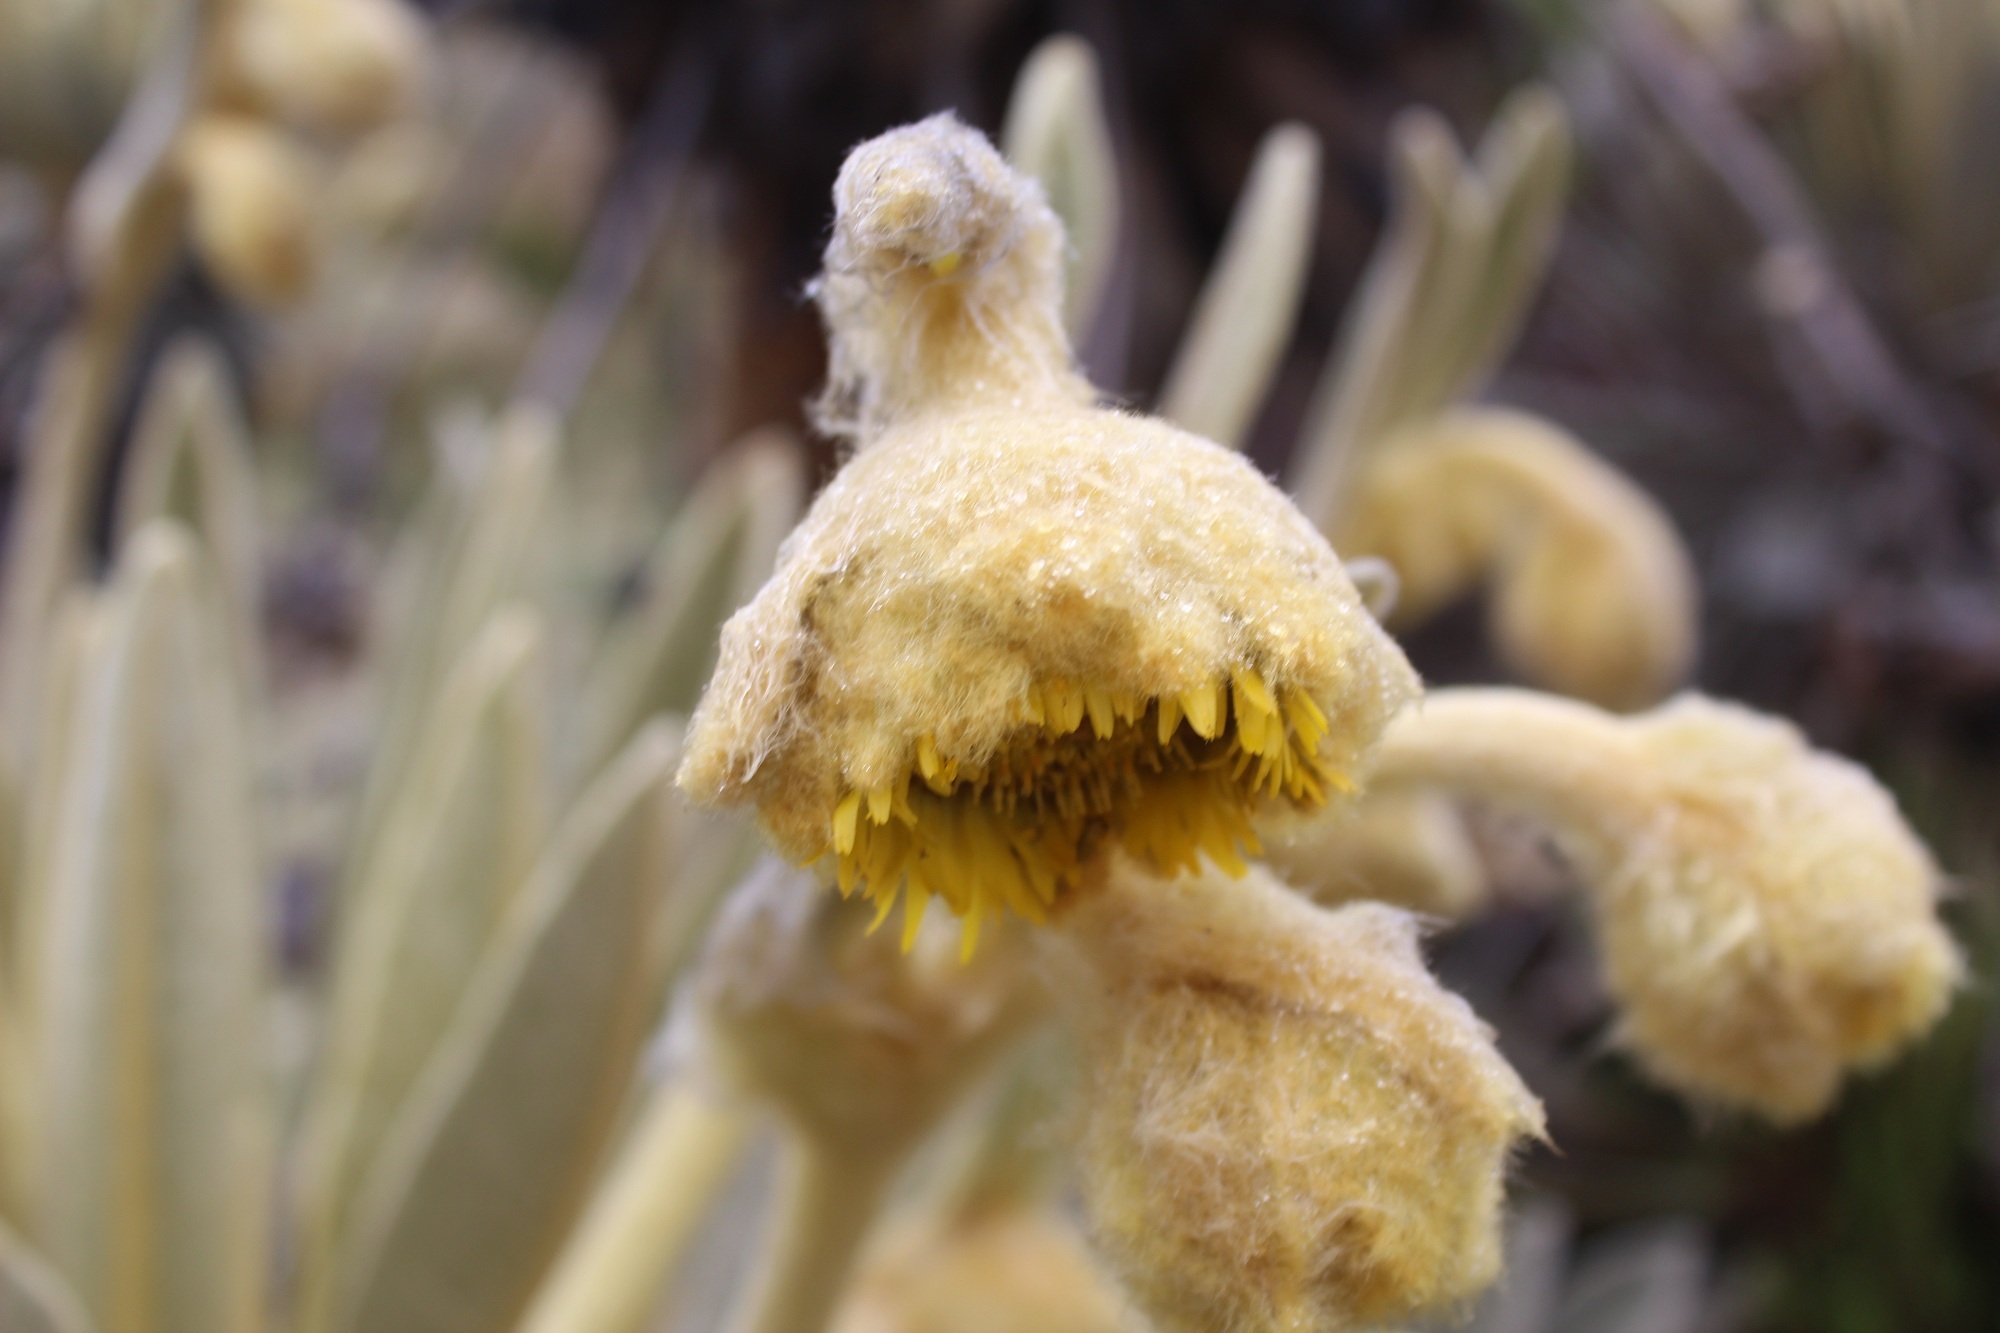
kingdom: Plantae
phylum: Tracheophyta
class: Magnoliopsida
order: Asterales
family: Asteraceae
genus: Espeletia
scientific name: Espeletia lopezii
